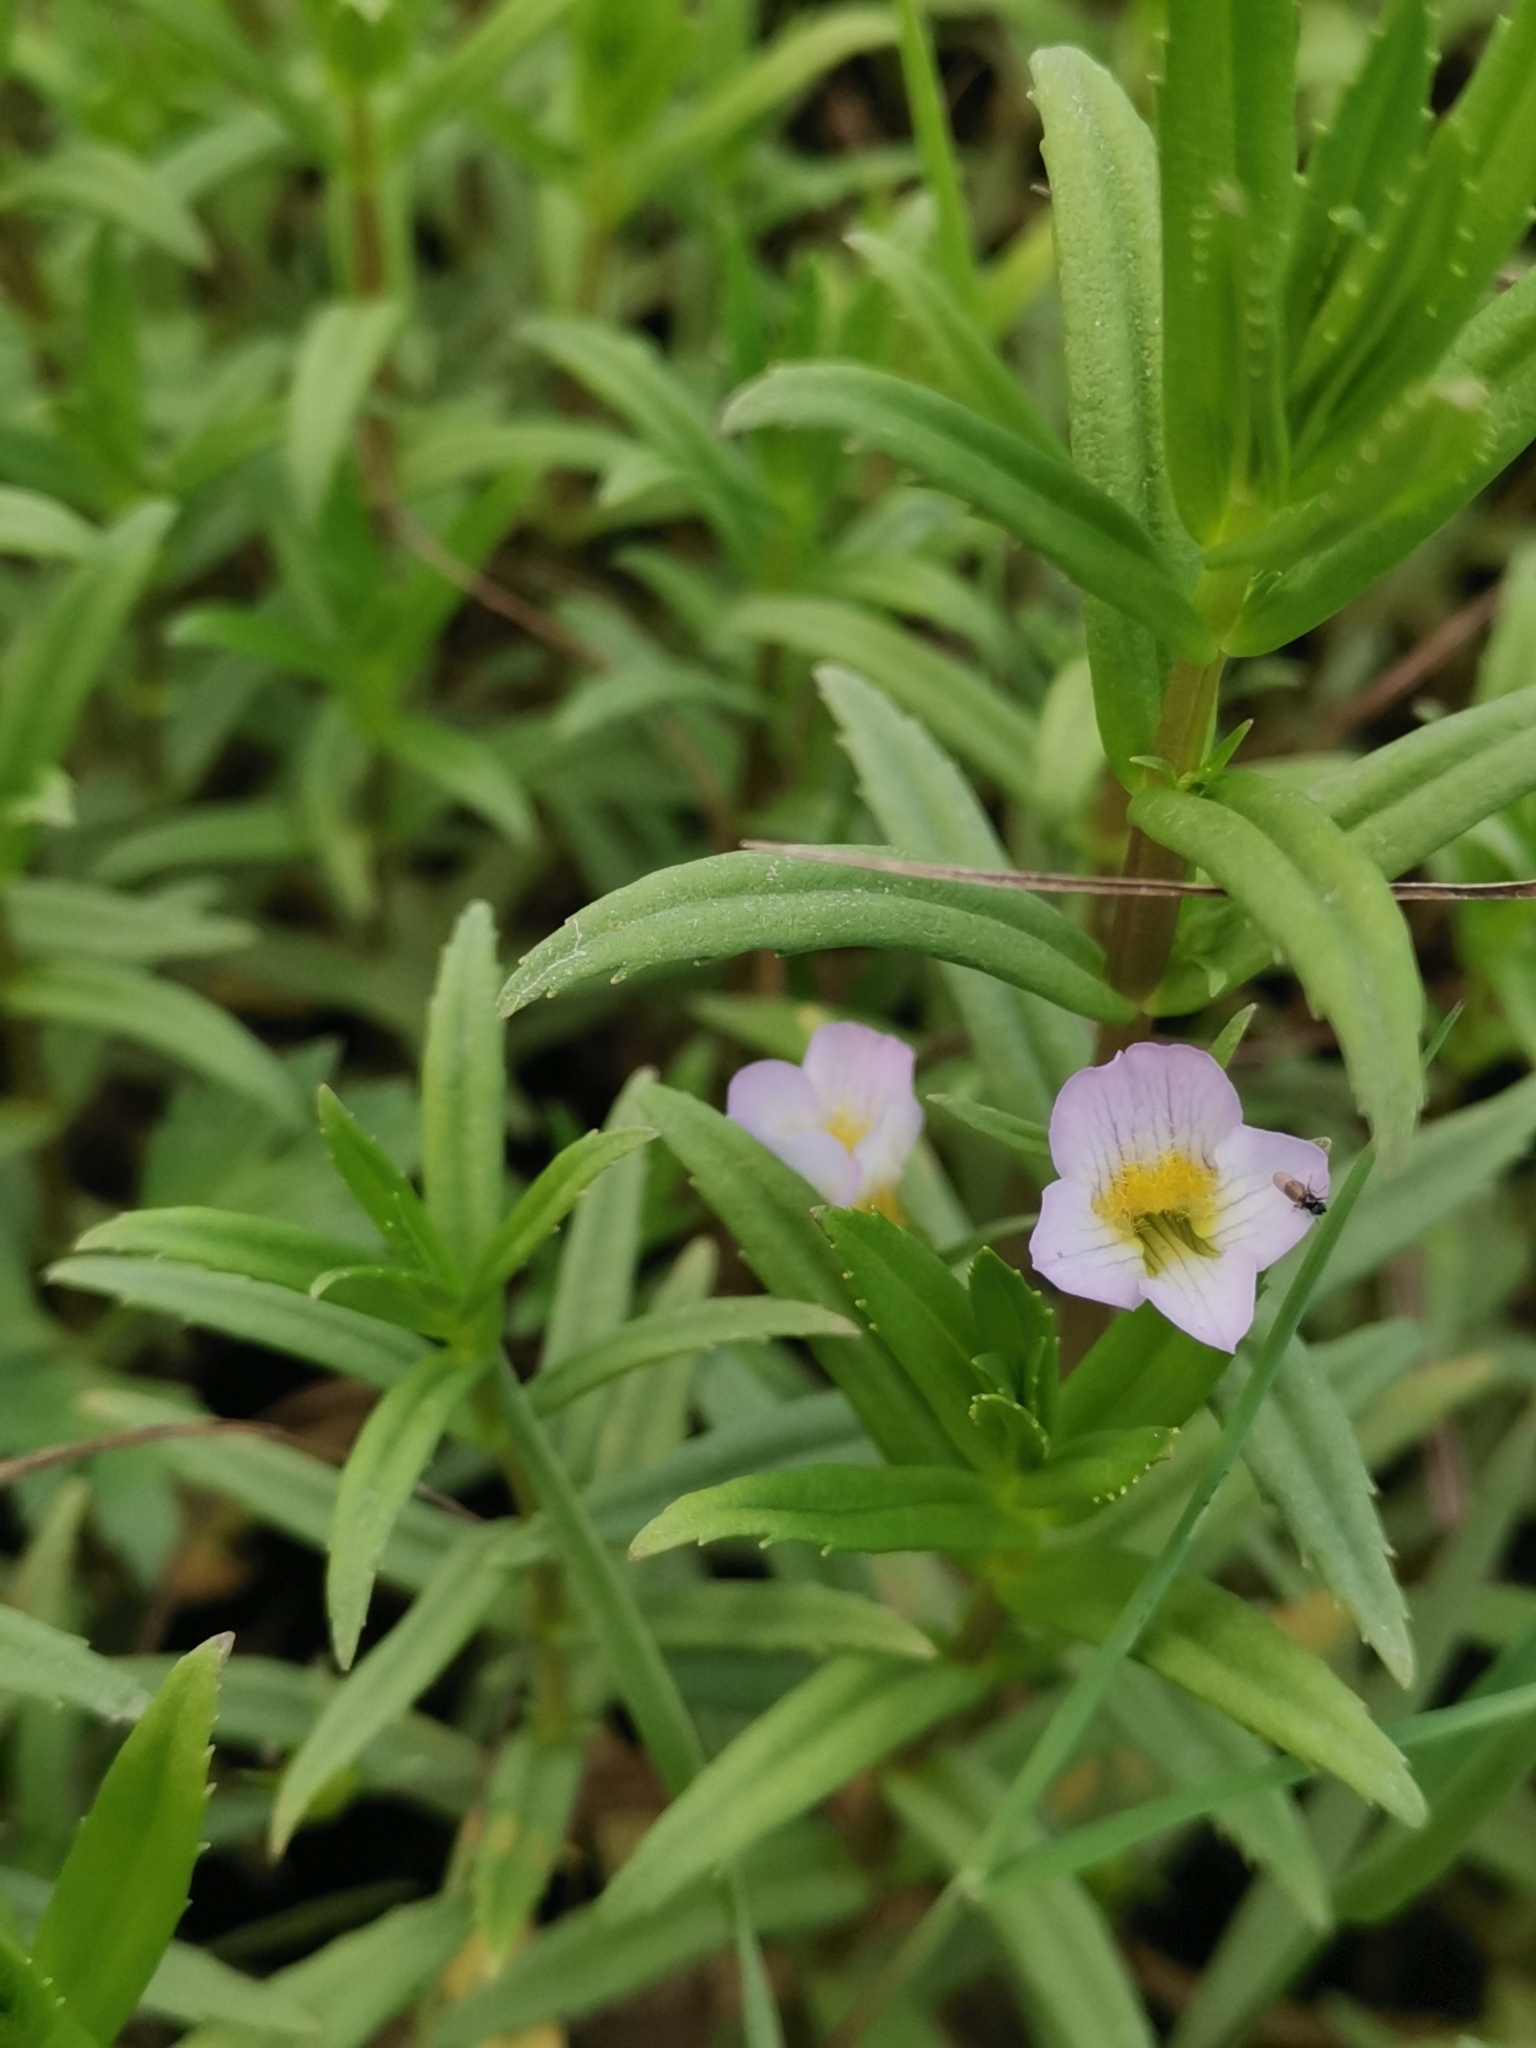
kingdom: Plantae
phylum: Tracheophyta
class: Magnoliopsida
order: Lamiales
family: Plantaginaceae
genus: Gratiola
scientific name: Gratiola officinalis
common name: Gratiola
